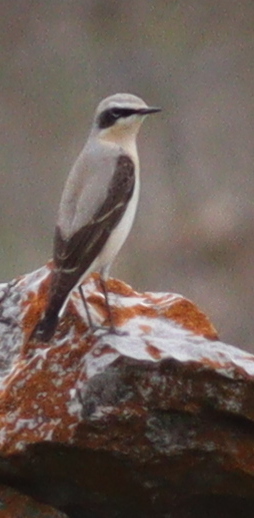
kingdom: Animalia
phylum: Chordata
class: Aves
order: Passeriformes
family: Muscicapidae
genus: Oenanthe
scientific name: Oenanthe oenanthe
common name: Northern wheatear
